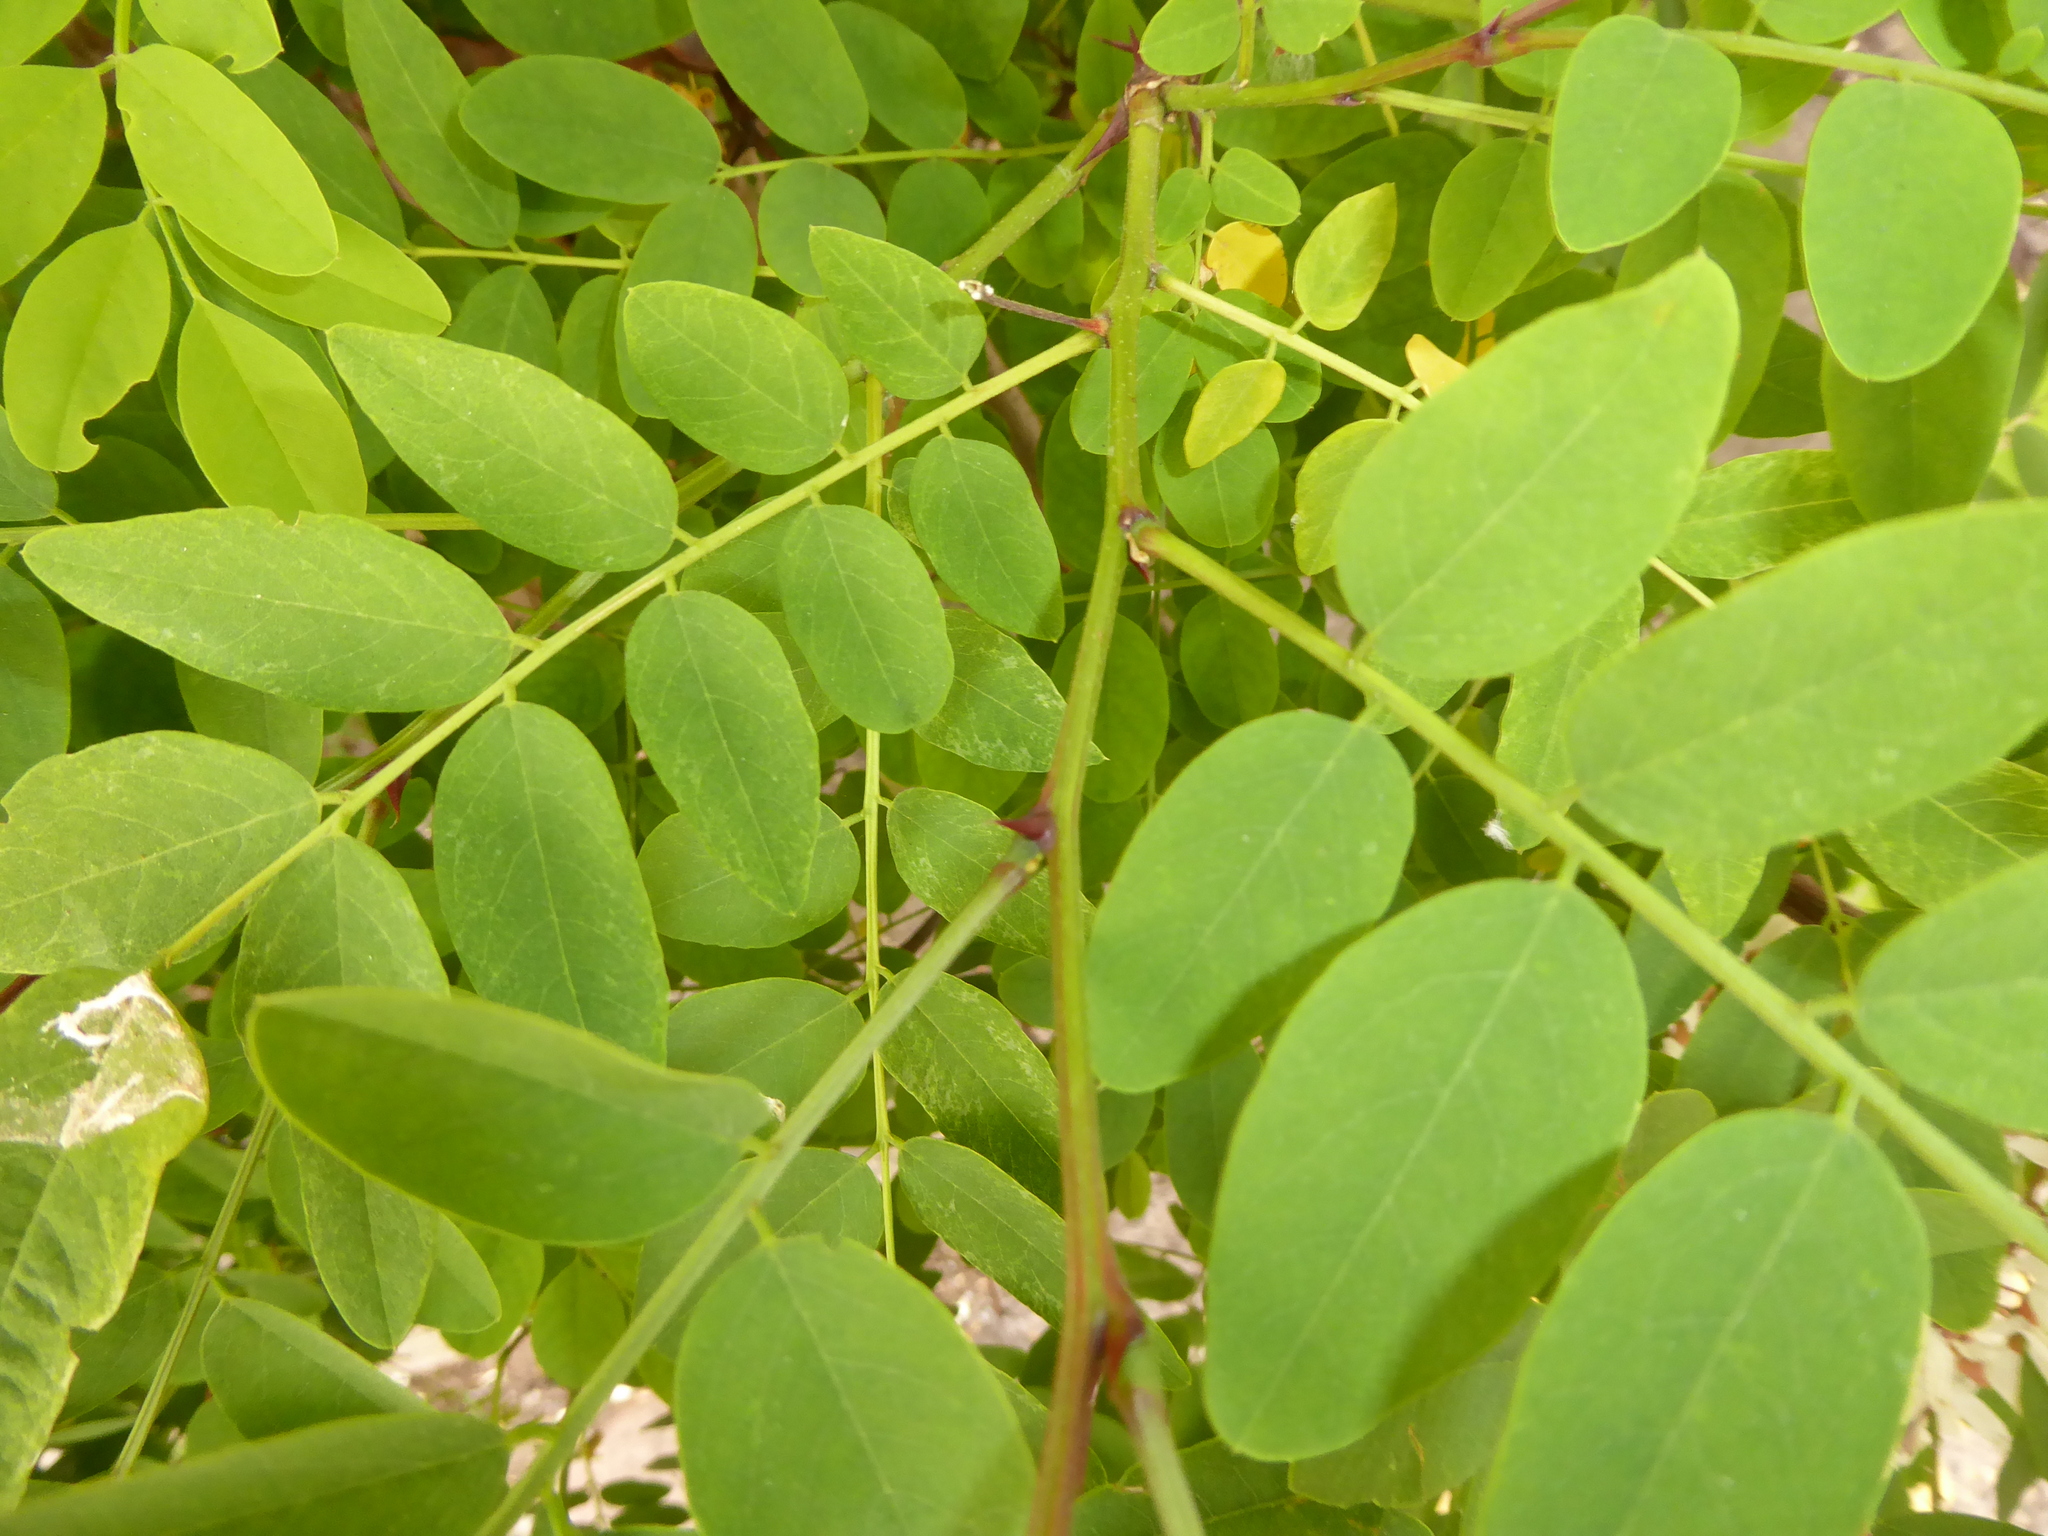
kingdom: Plantae
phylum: Tracheophyta
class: Magnoliopsida
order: Fabales
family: Fabaceae
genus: Robinia
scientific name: Robinia pseudoacacia
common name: Black locust
